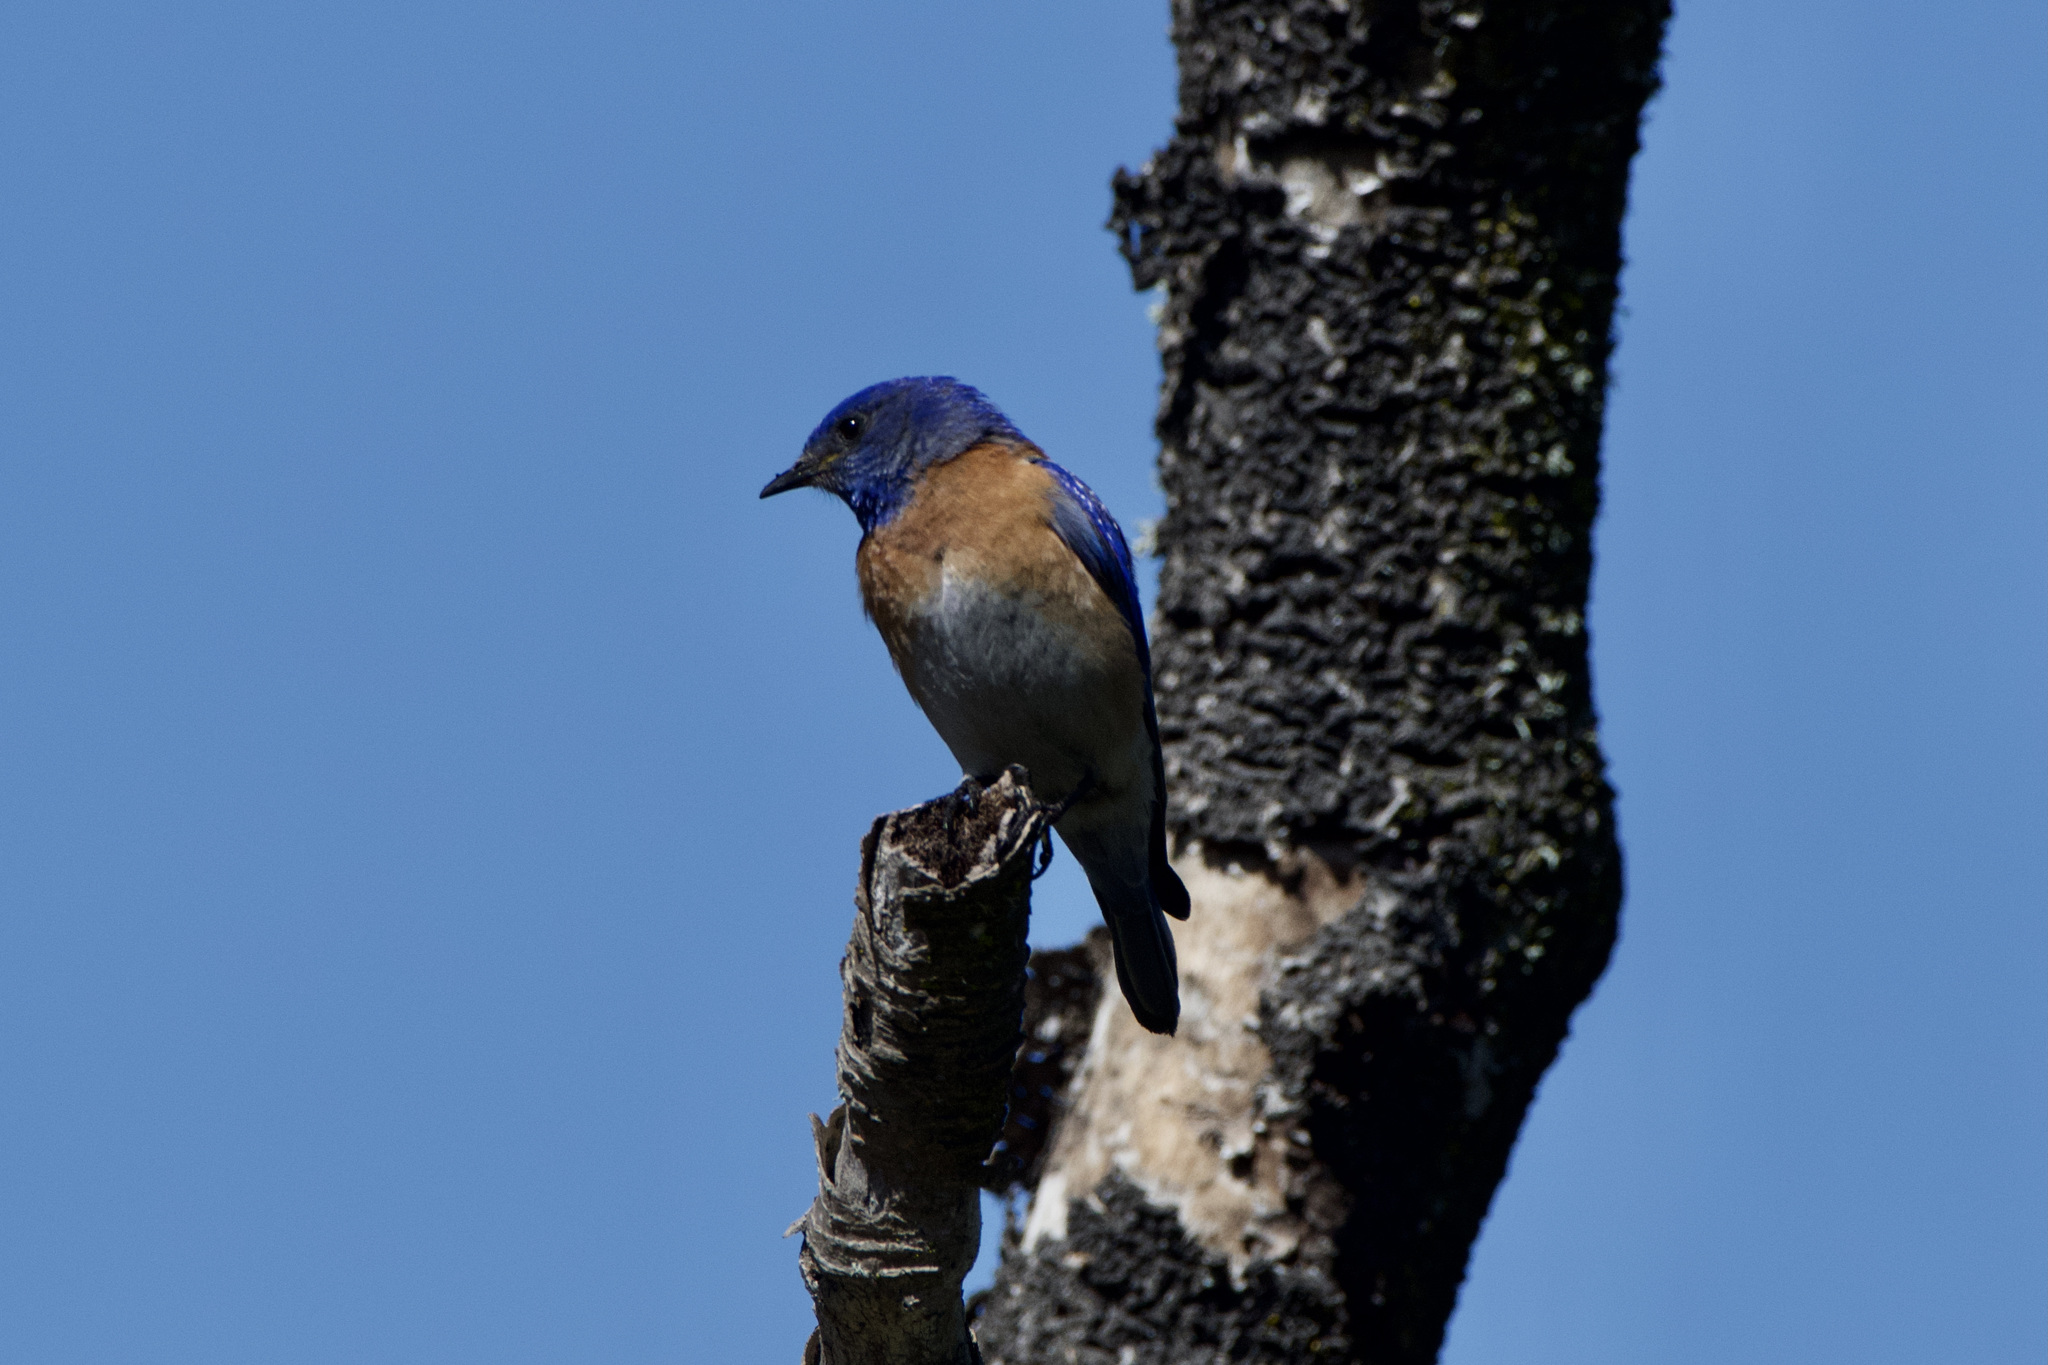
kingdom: Animalia
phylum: Chordata
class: Aves
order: Passeriformes
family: Turdidae
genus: Sialia
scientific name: Sialia mexicana
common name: Western bluebird
